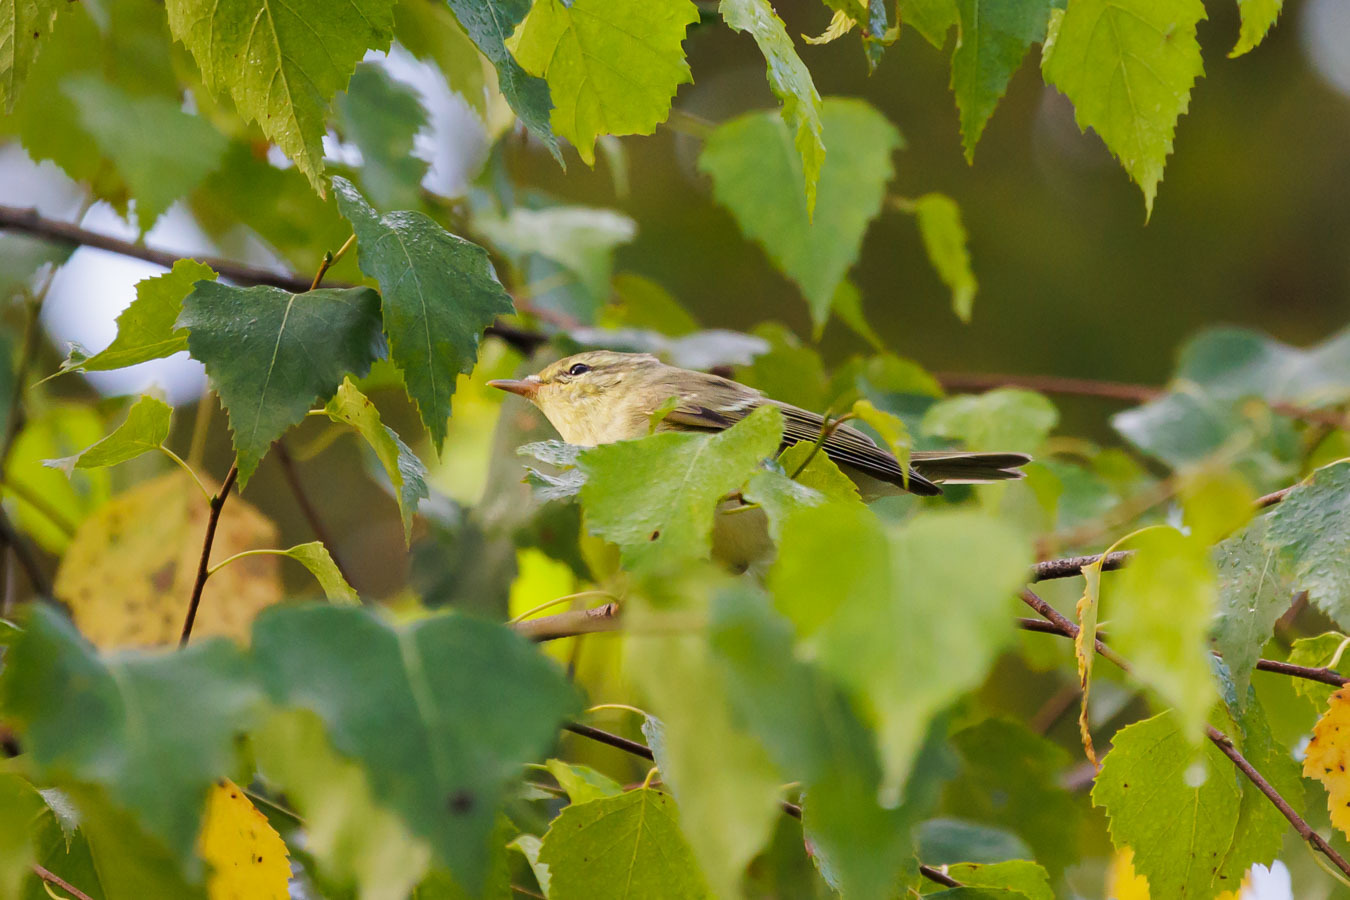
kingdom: Animalia
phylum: Chordata
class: Aves
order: Passeriformes
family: Phylloscopidae
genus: Phylloscopus
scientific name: Phylloscopus nitidus
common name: Green warbler
